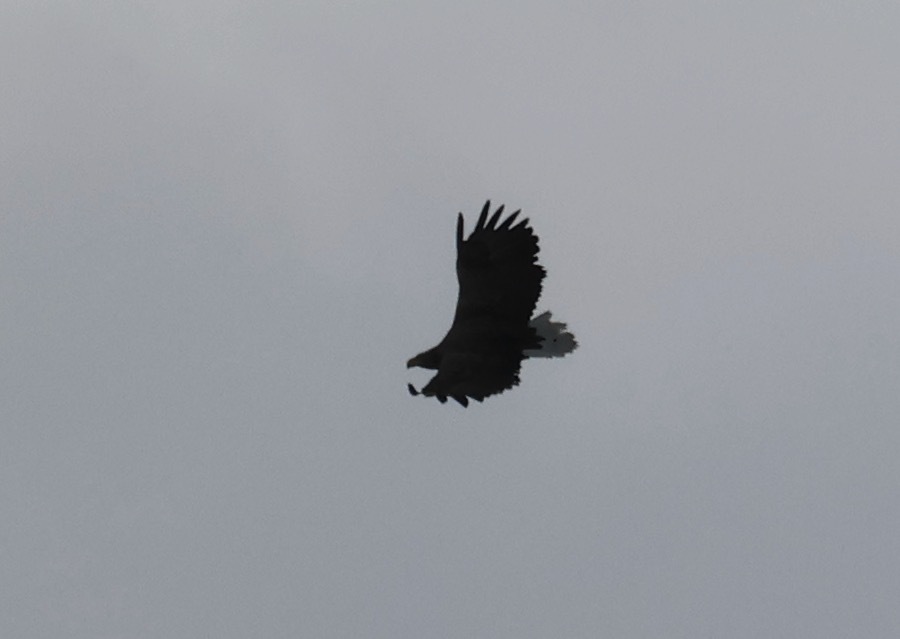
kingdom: Animalia
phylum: Chordata
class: Aves
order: Accipitriformes
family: Accipitridae
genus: Haliaeetus
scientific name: Haliaeetus albicilla
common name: White-tailed eagle
